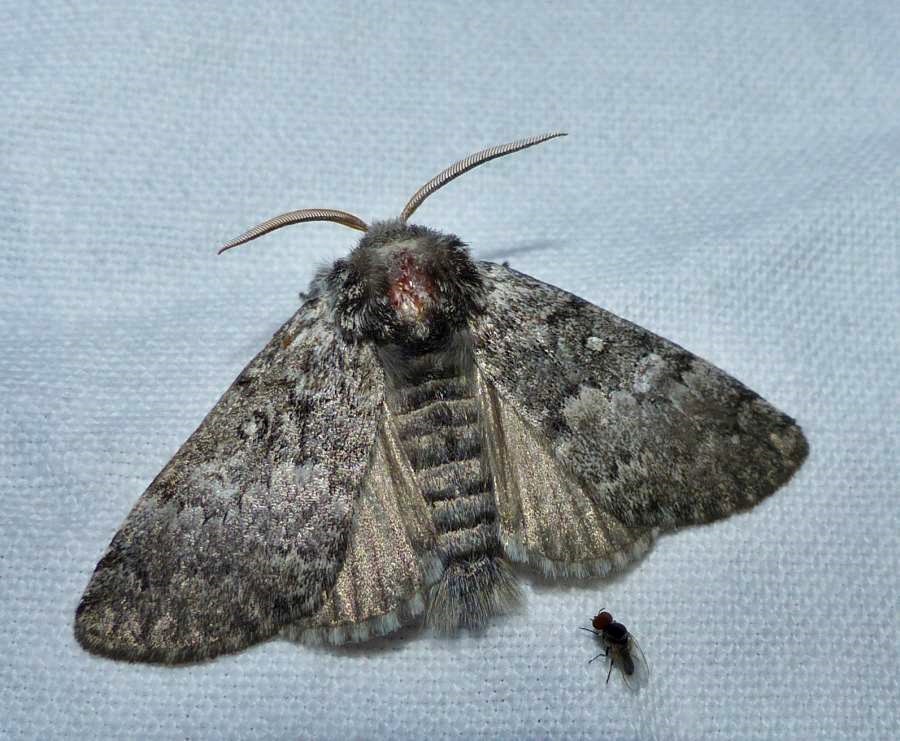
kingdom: Animalia
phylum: Arthropoda
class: Insecta
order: Lepidoptera
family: Noctuidae
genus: Colocasia
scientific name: Colocasia propinquilinea
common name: Close-banded demas
